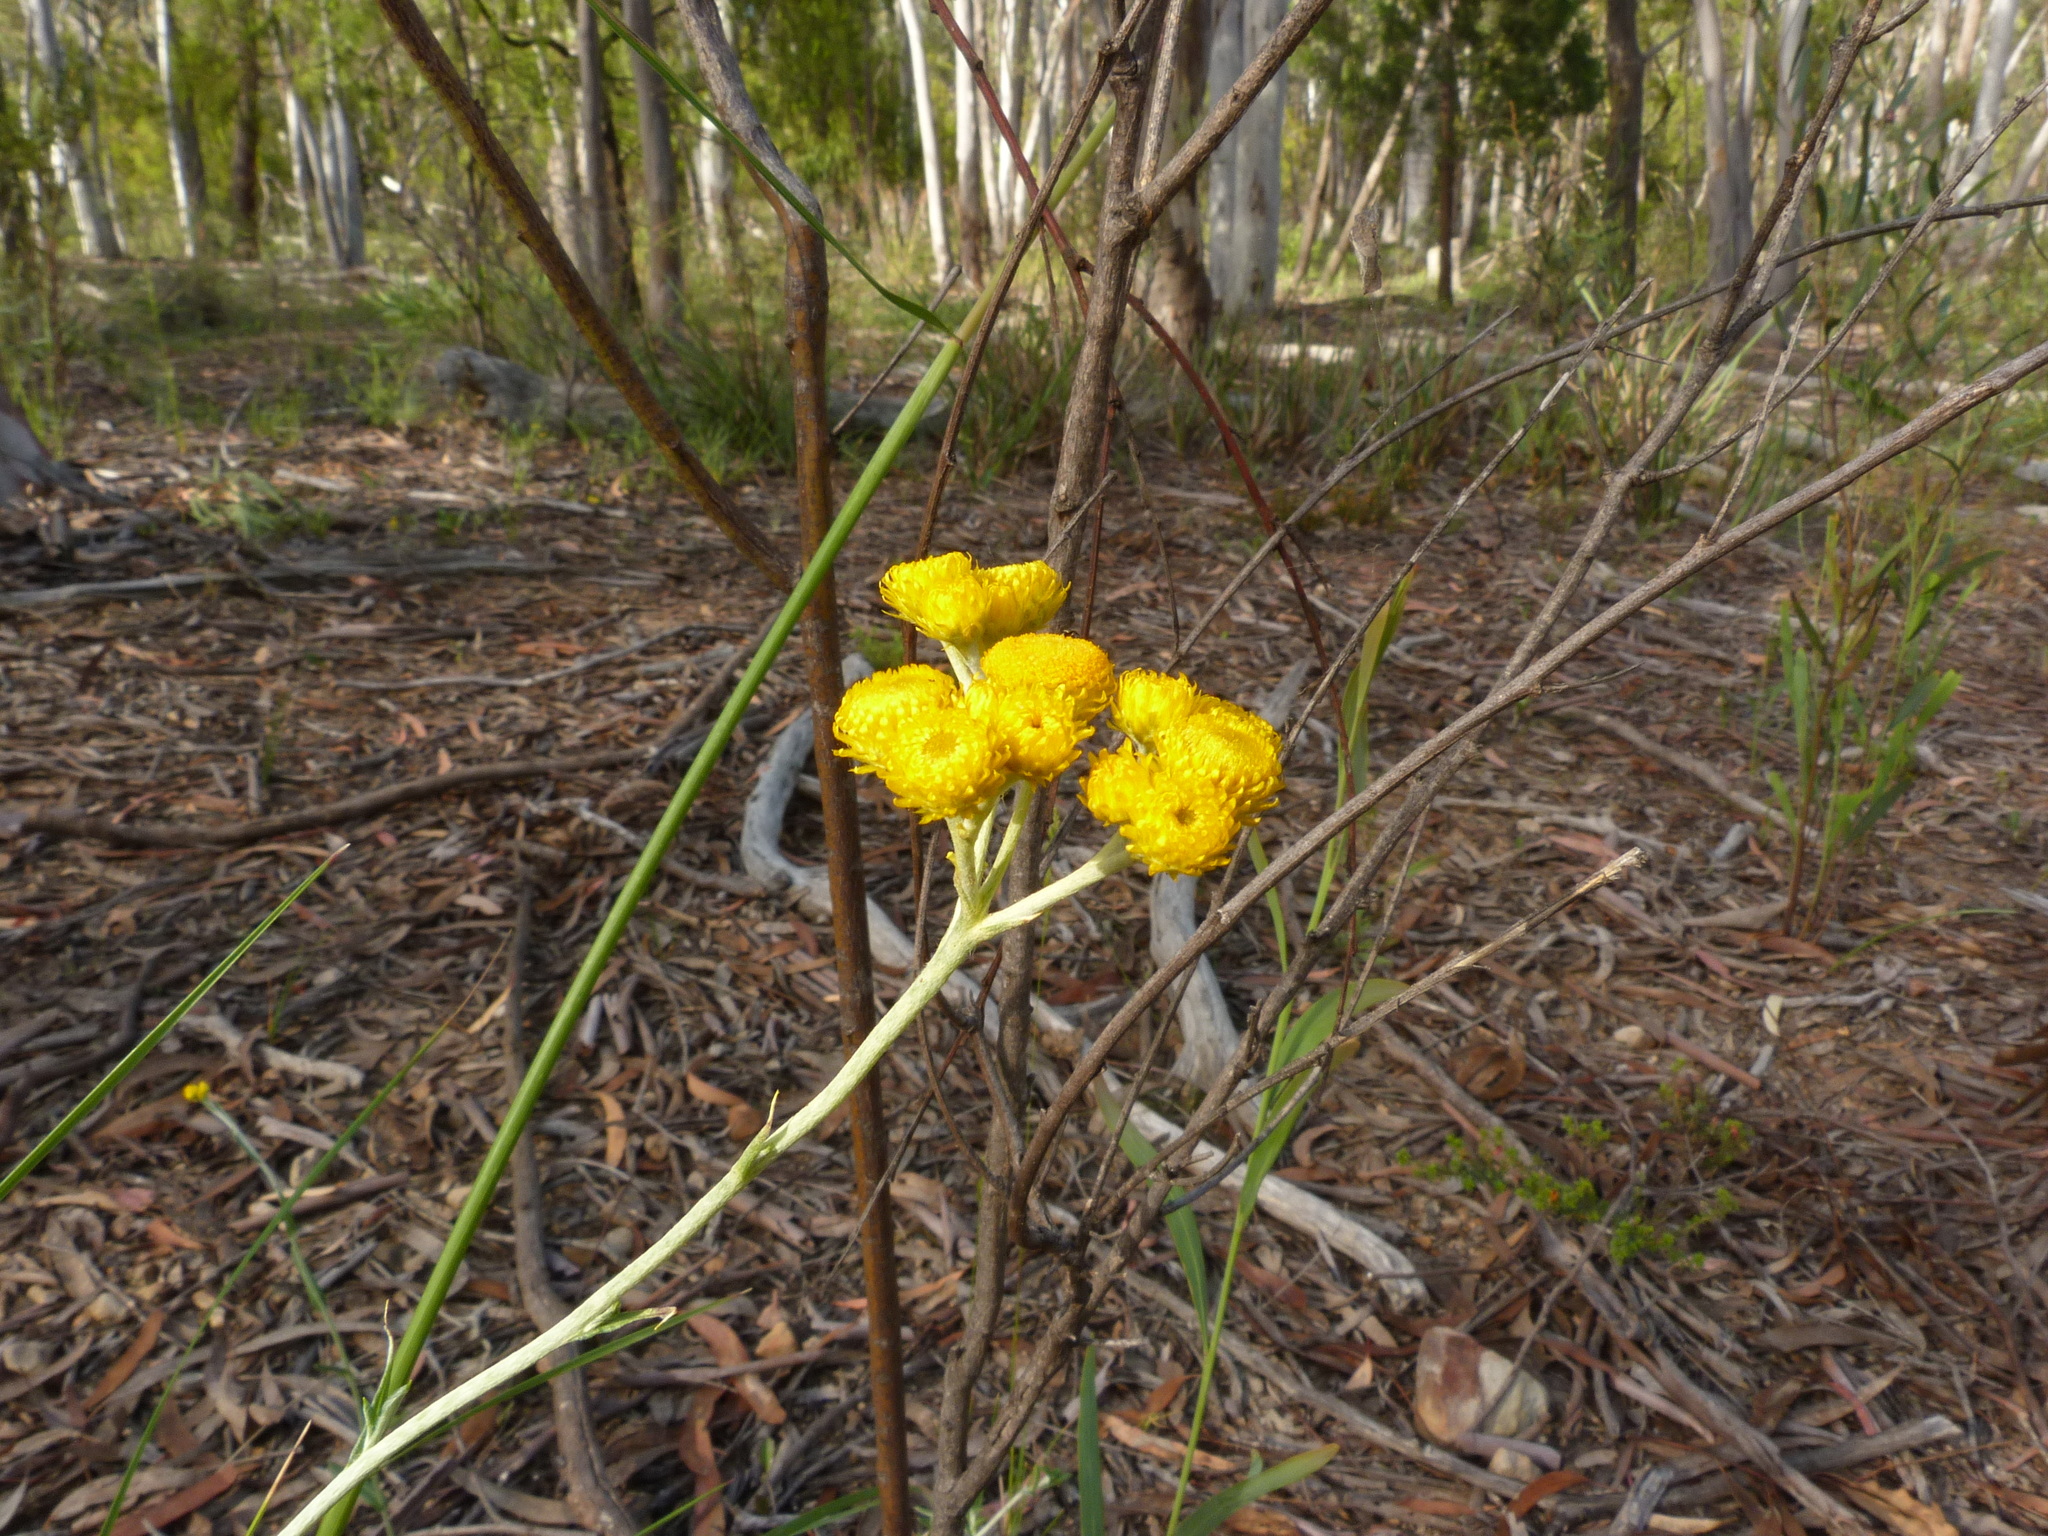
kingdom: Plantae
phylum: Tracheophyta
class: Magnoliopsida
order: Asterales
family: Asteraceae
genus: Chrysocephalum
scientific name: Chrysocephalum semipapposum
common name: Clustered everlasting
